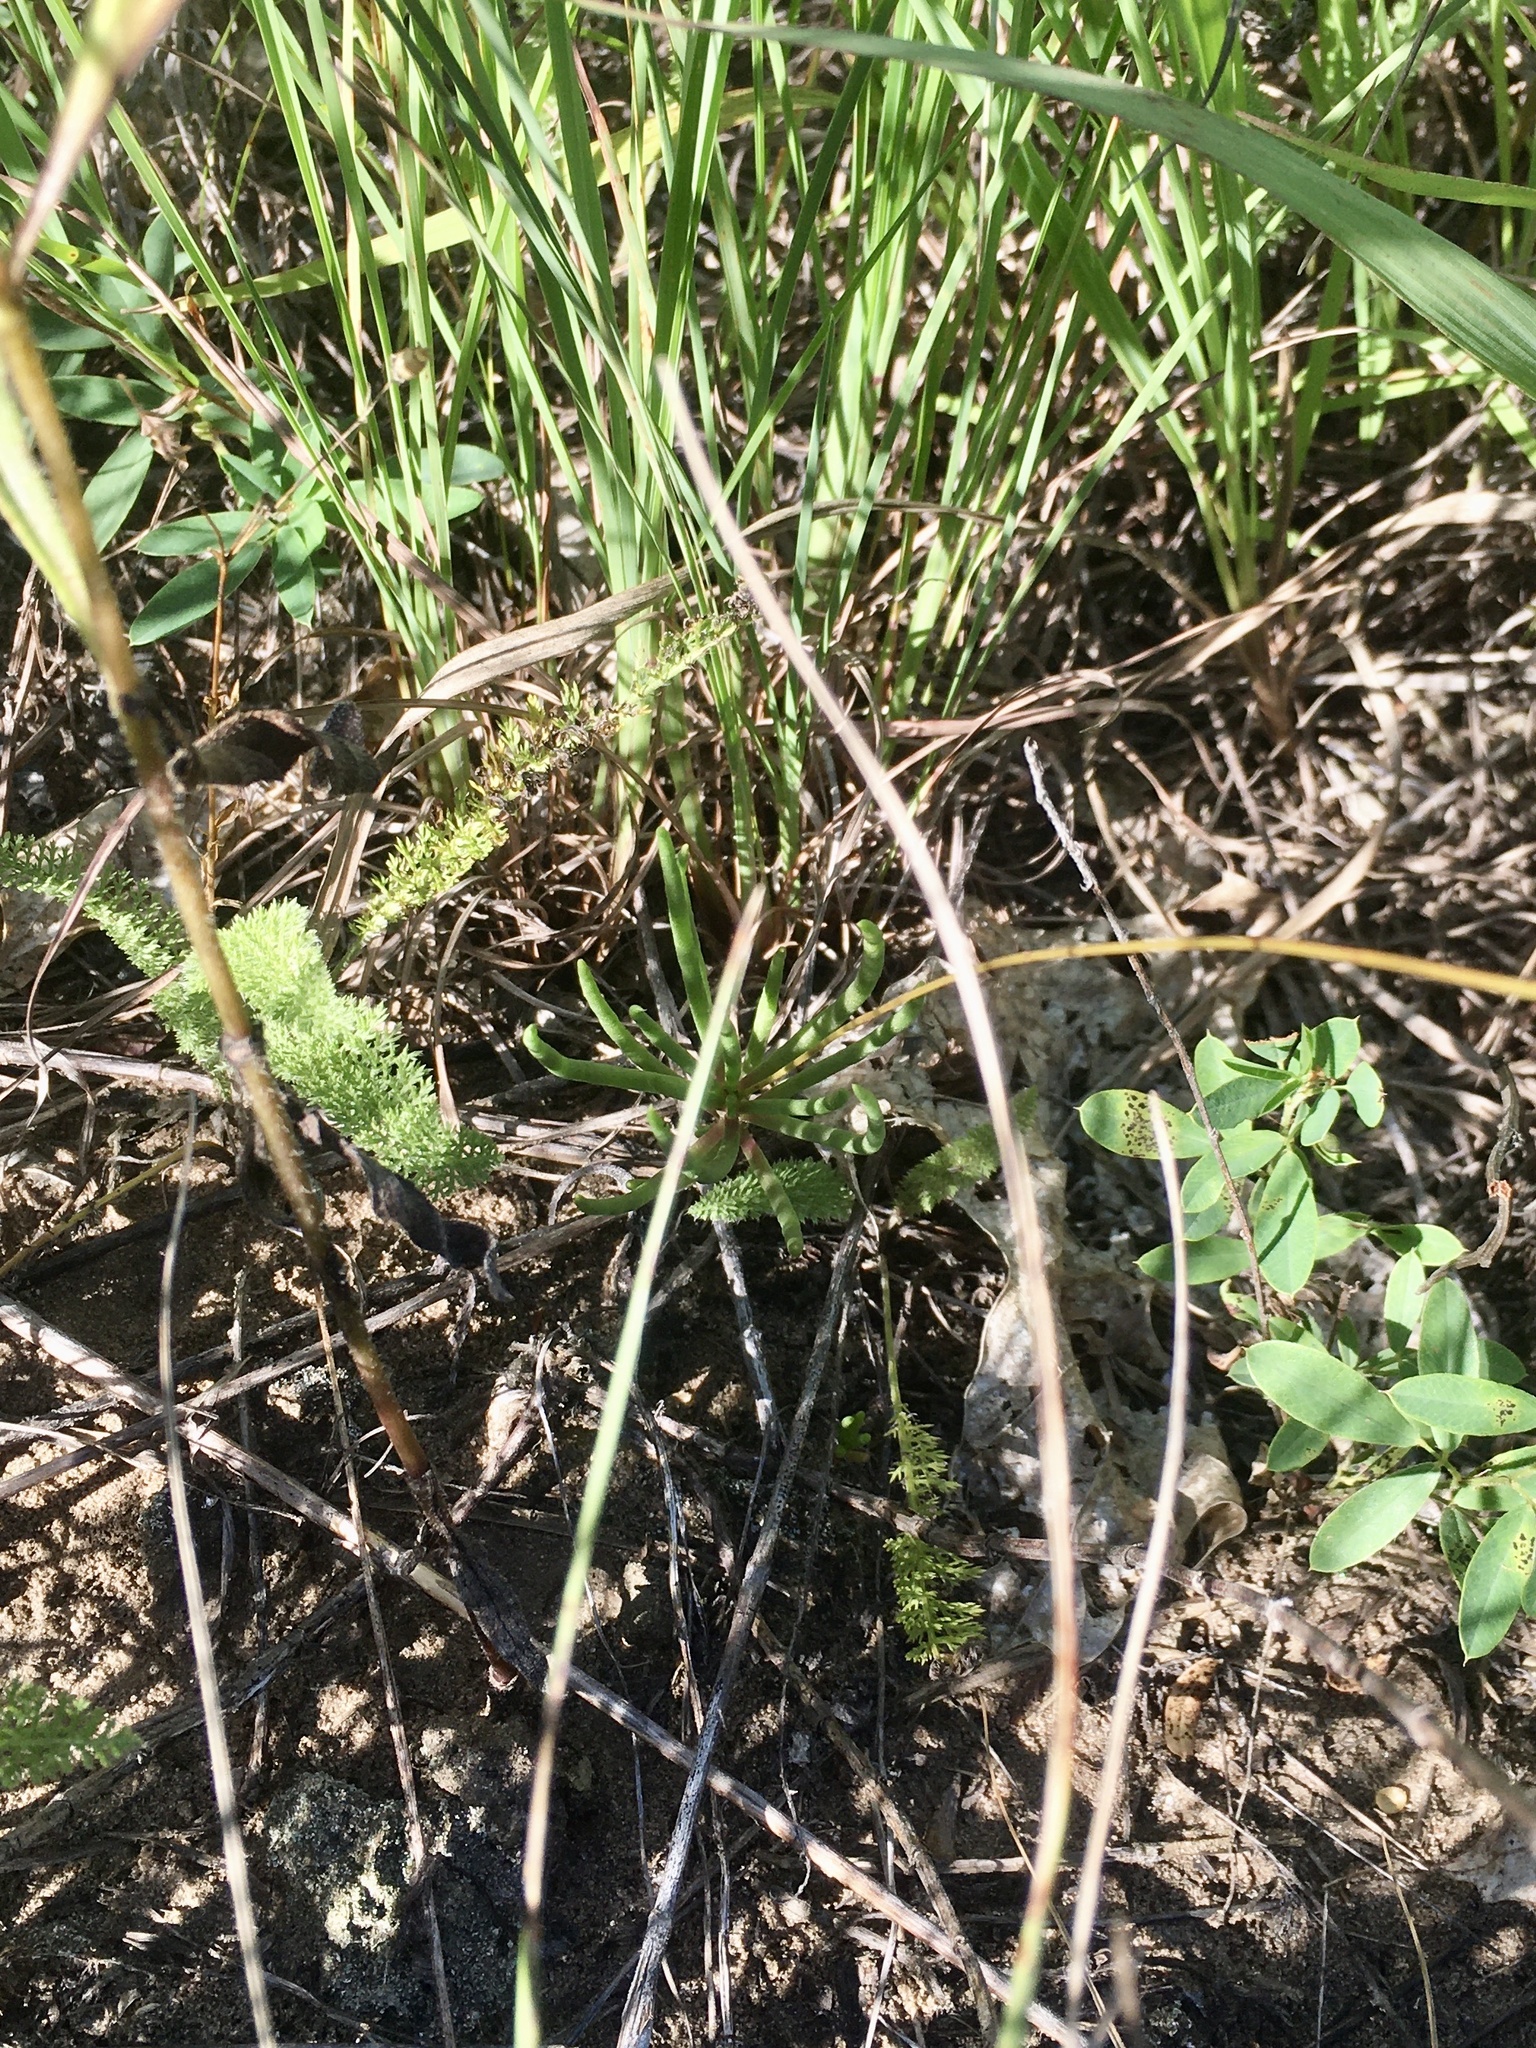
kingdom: Plantae
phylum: Tracheophyta
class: Magnoliopsida
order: Caryophyllales
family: Montiaceae
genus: Phemeranthus
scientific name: Phemeranthus rugospermus
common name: Prairie fameflower
